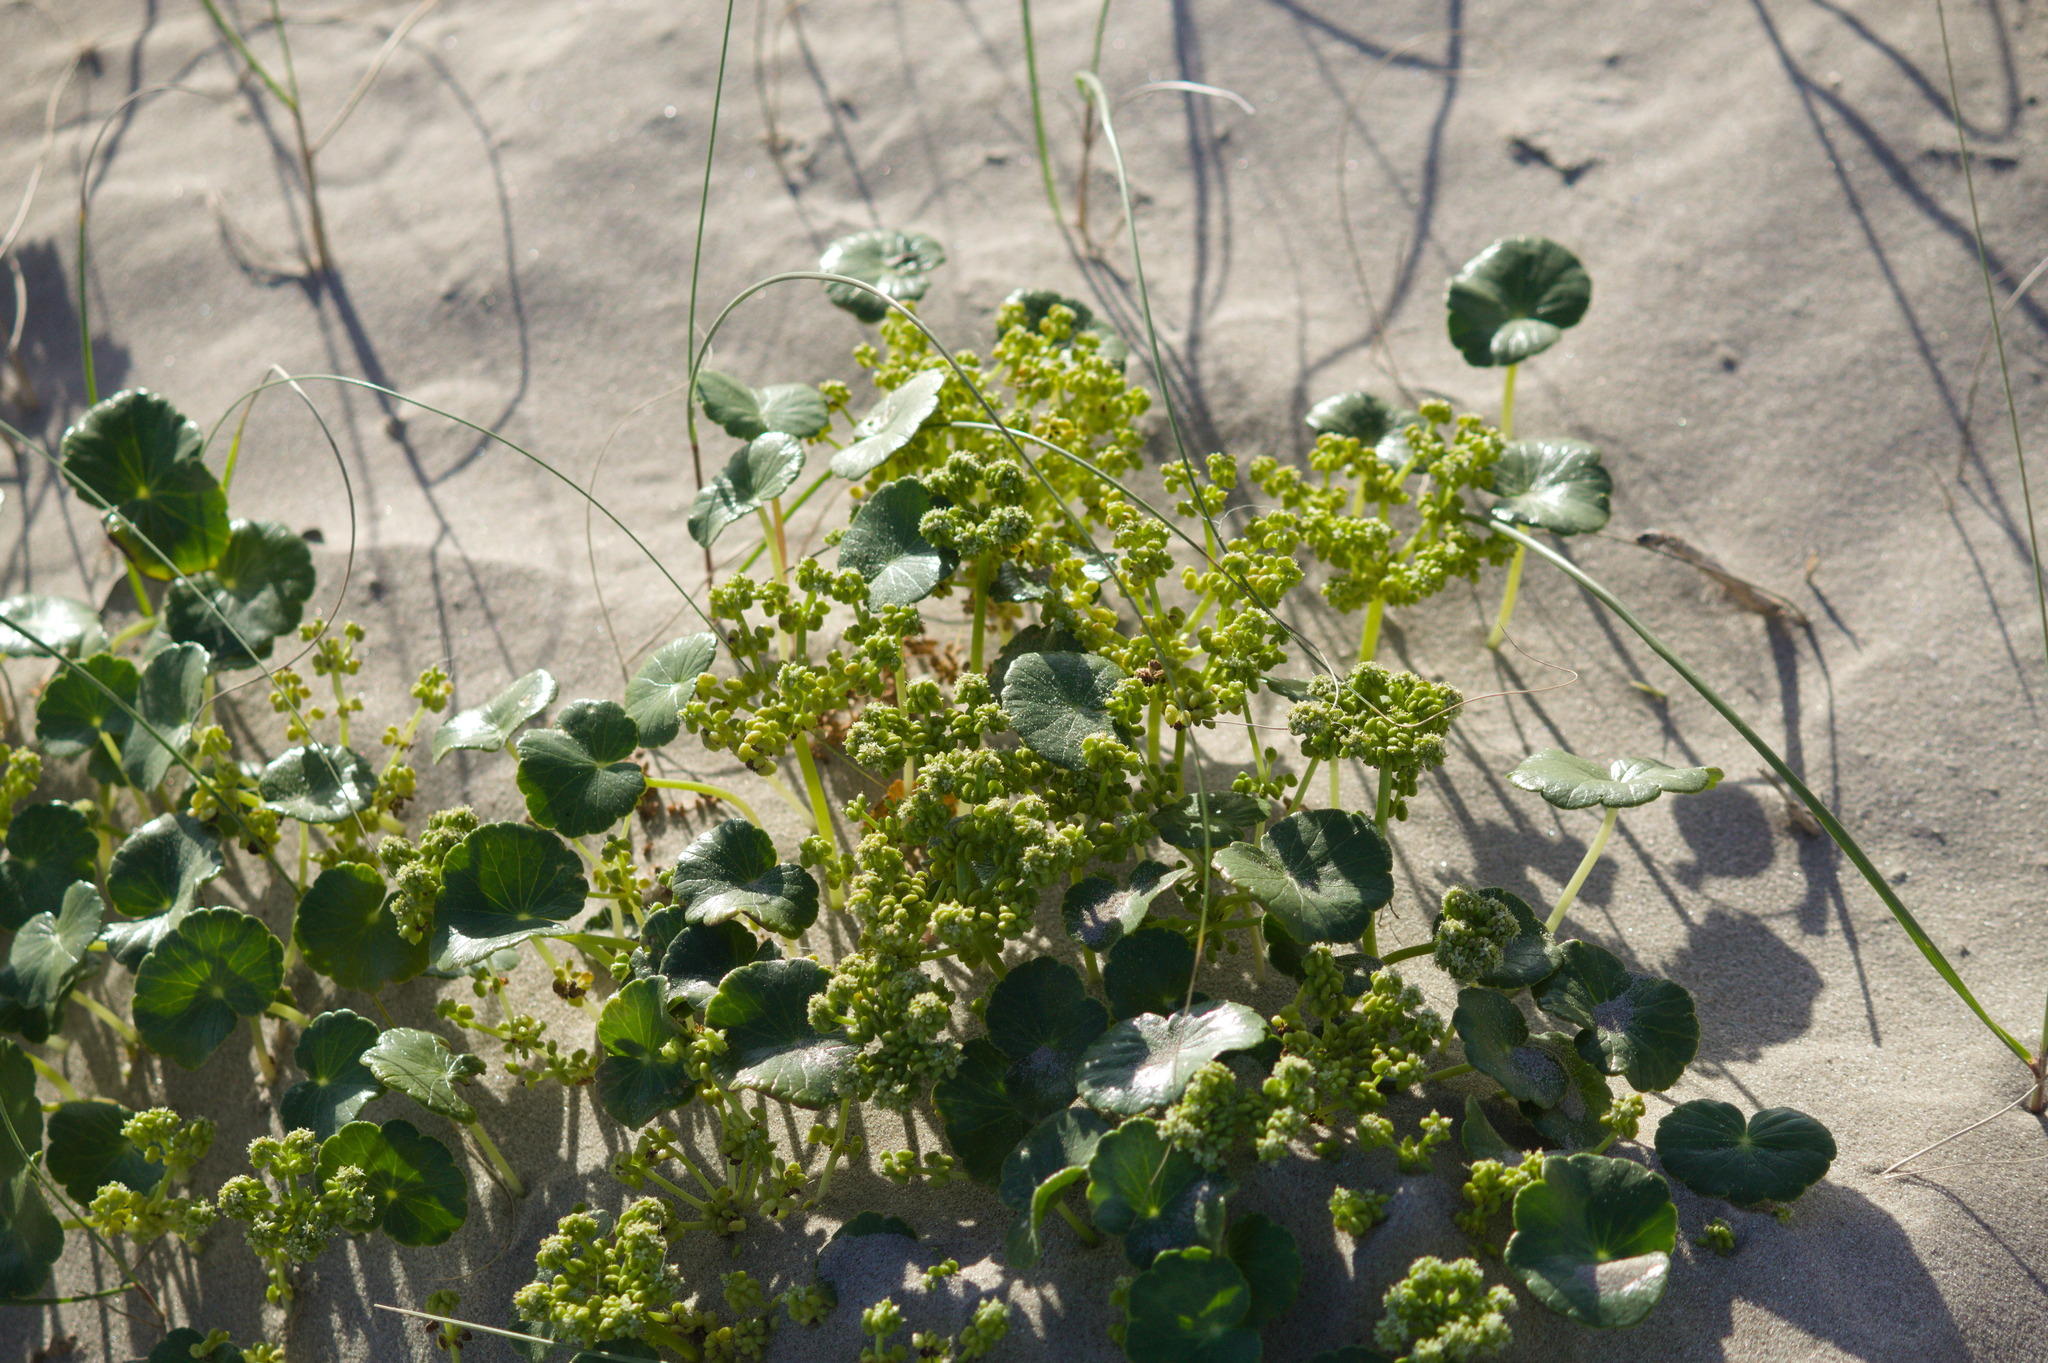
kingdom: Plantae
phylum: Tracheophyta
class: Magnoliopsida
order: Apiales
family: Araliaceae
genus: Hydrocotyle
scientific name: Hydrocotyle bonariensis
